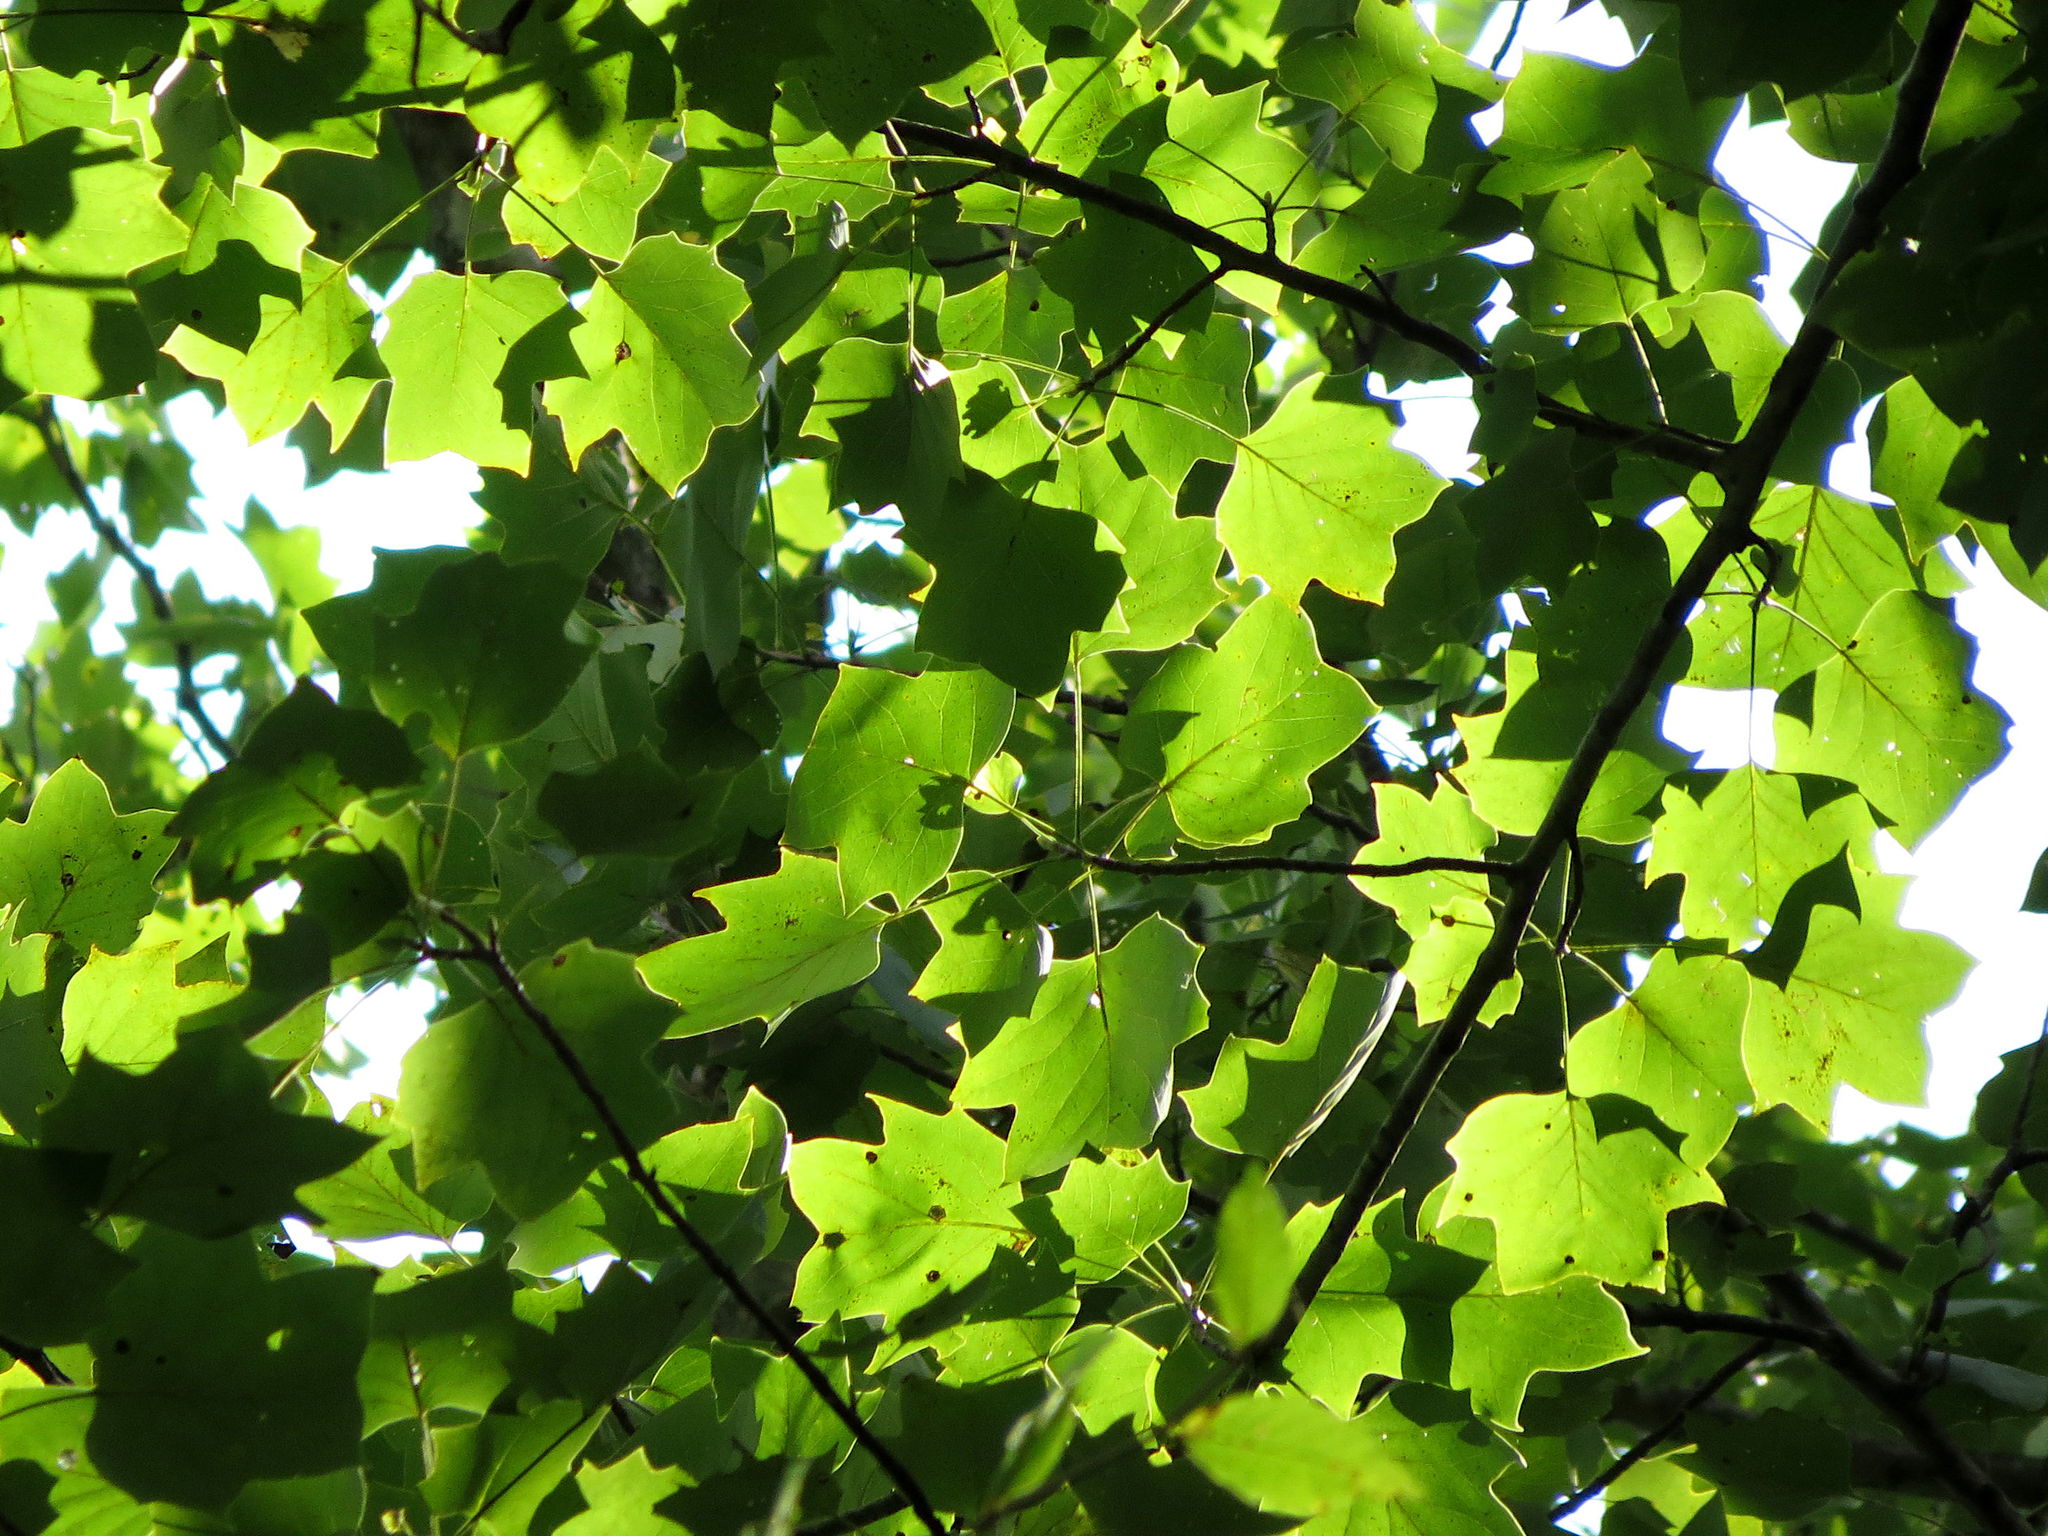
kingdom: Plantae
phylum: Tracheophyta
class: Magnoliopsida
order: Magnoliales
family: Magnoliaceae
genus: Liriodendron
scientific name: Liriodendron tulipifera
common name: Tulip tree
